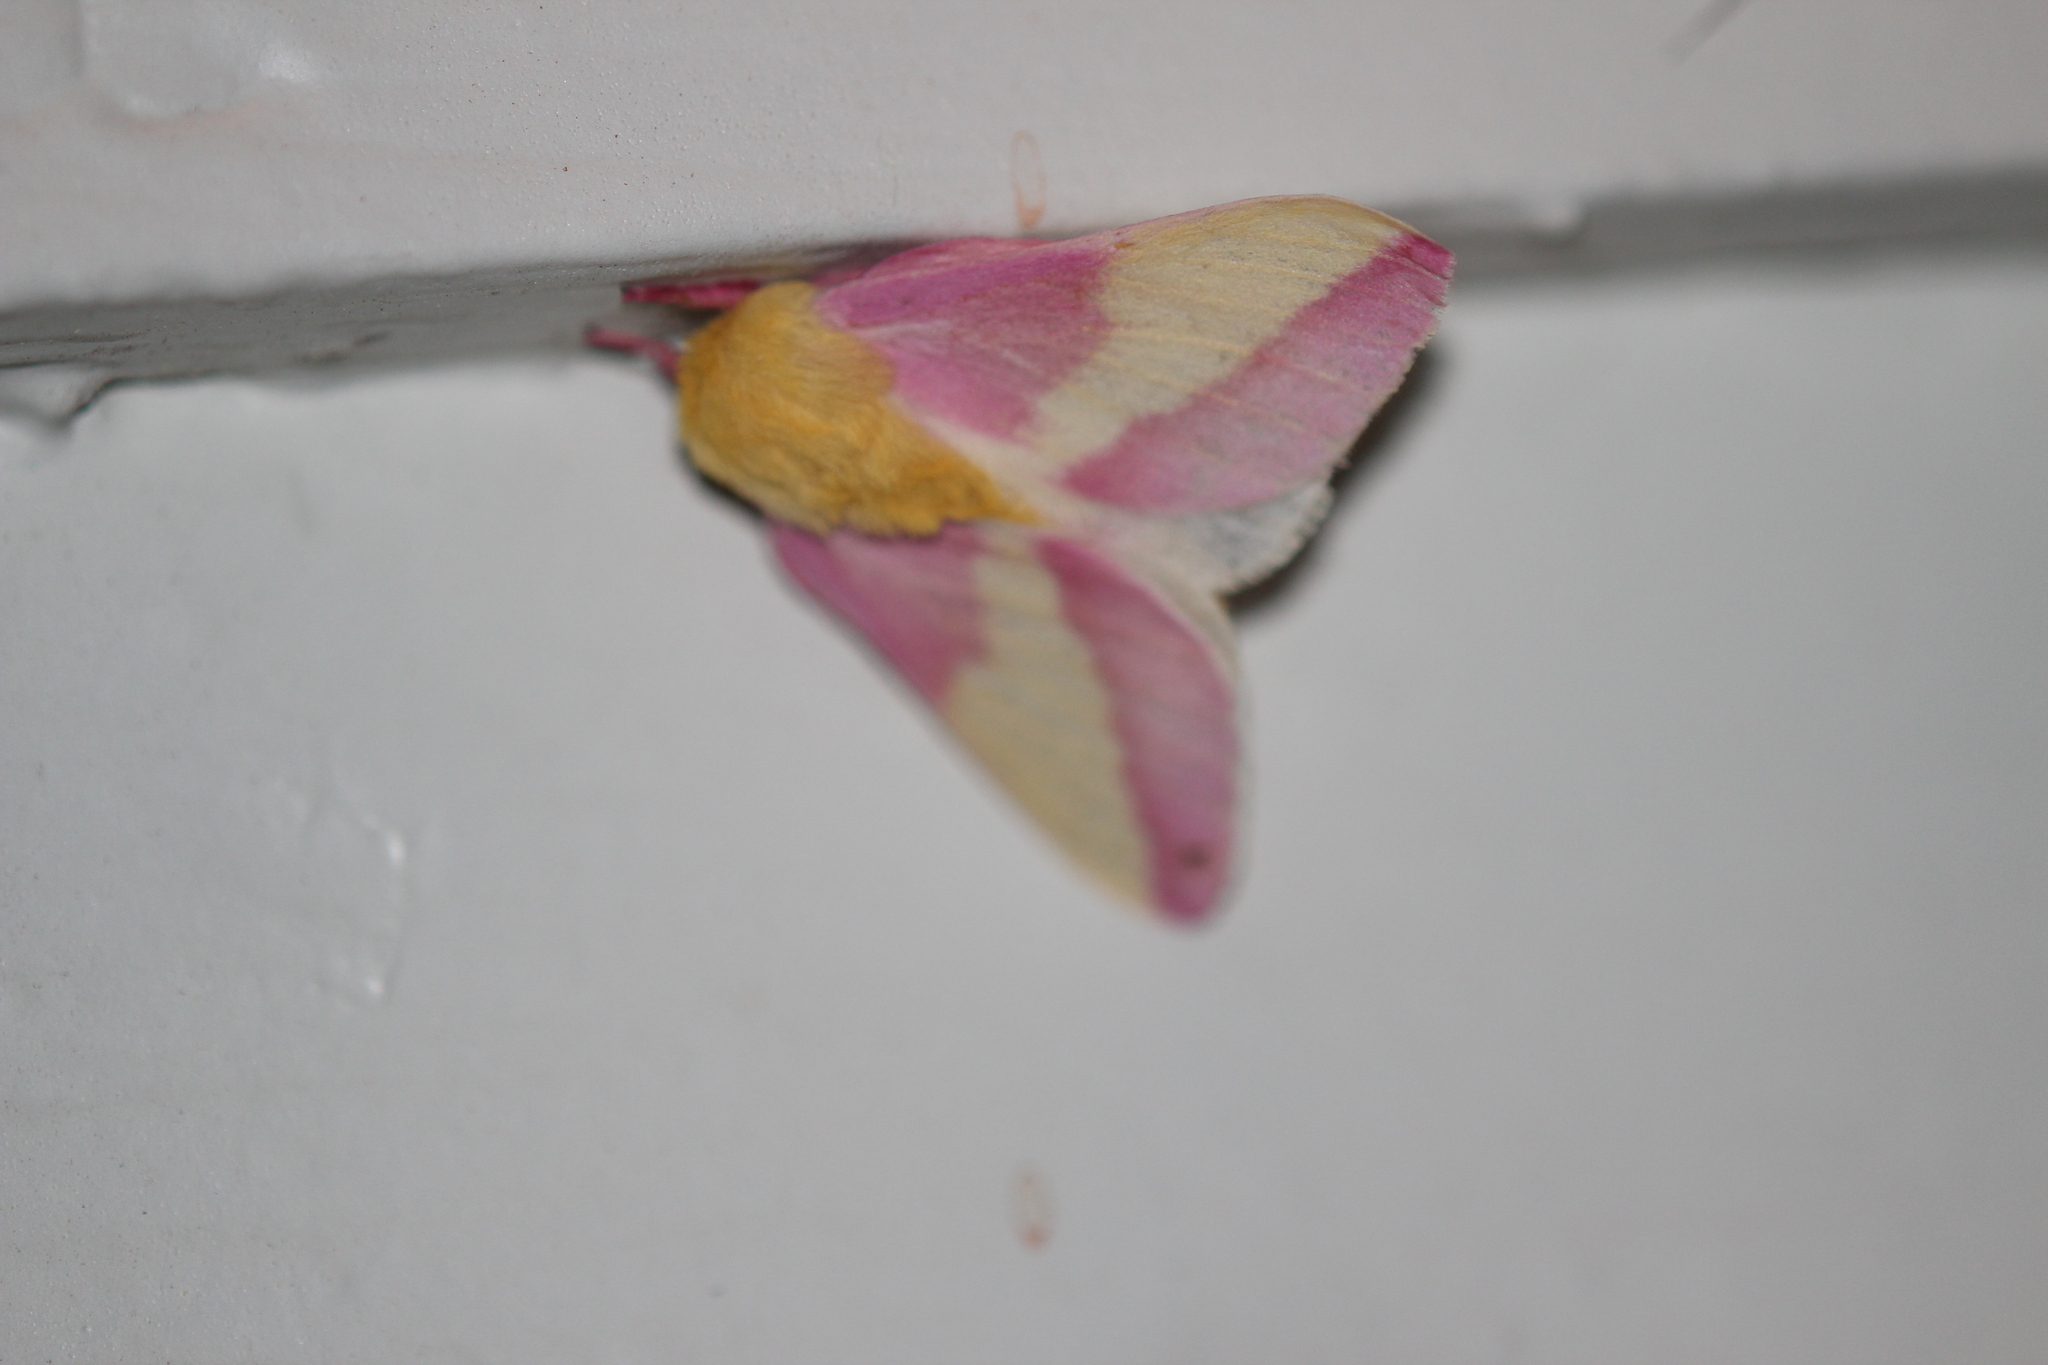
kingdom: Animalia
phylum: Arthropoda
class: Insecta
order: Lepidoptera
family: Saturniidae
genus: Dryocampa
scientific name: Dryocampa rubicunda
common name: Rosy maple moth
